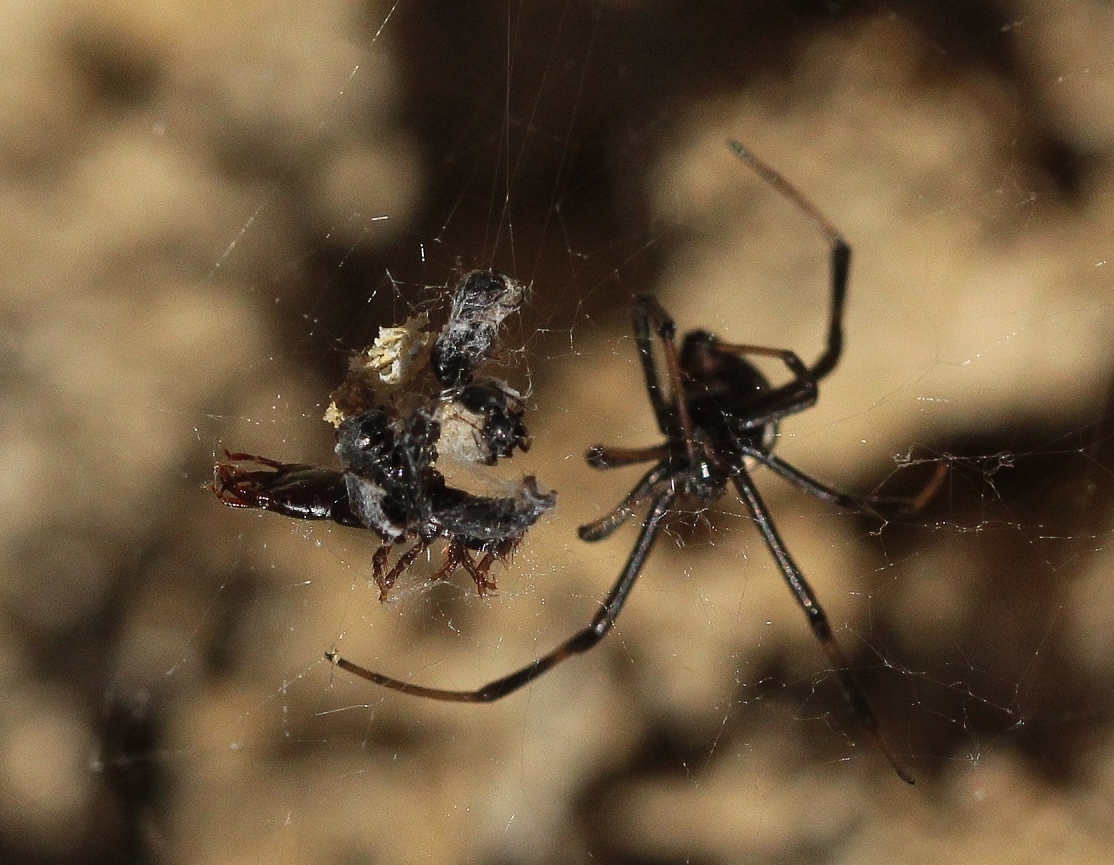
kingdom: Animalia
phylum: Arthropoda
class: Arachnida
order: Araneae
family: Theridiidae
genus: Latrodectus
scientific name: Latrodectus tredecimguttatus
